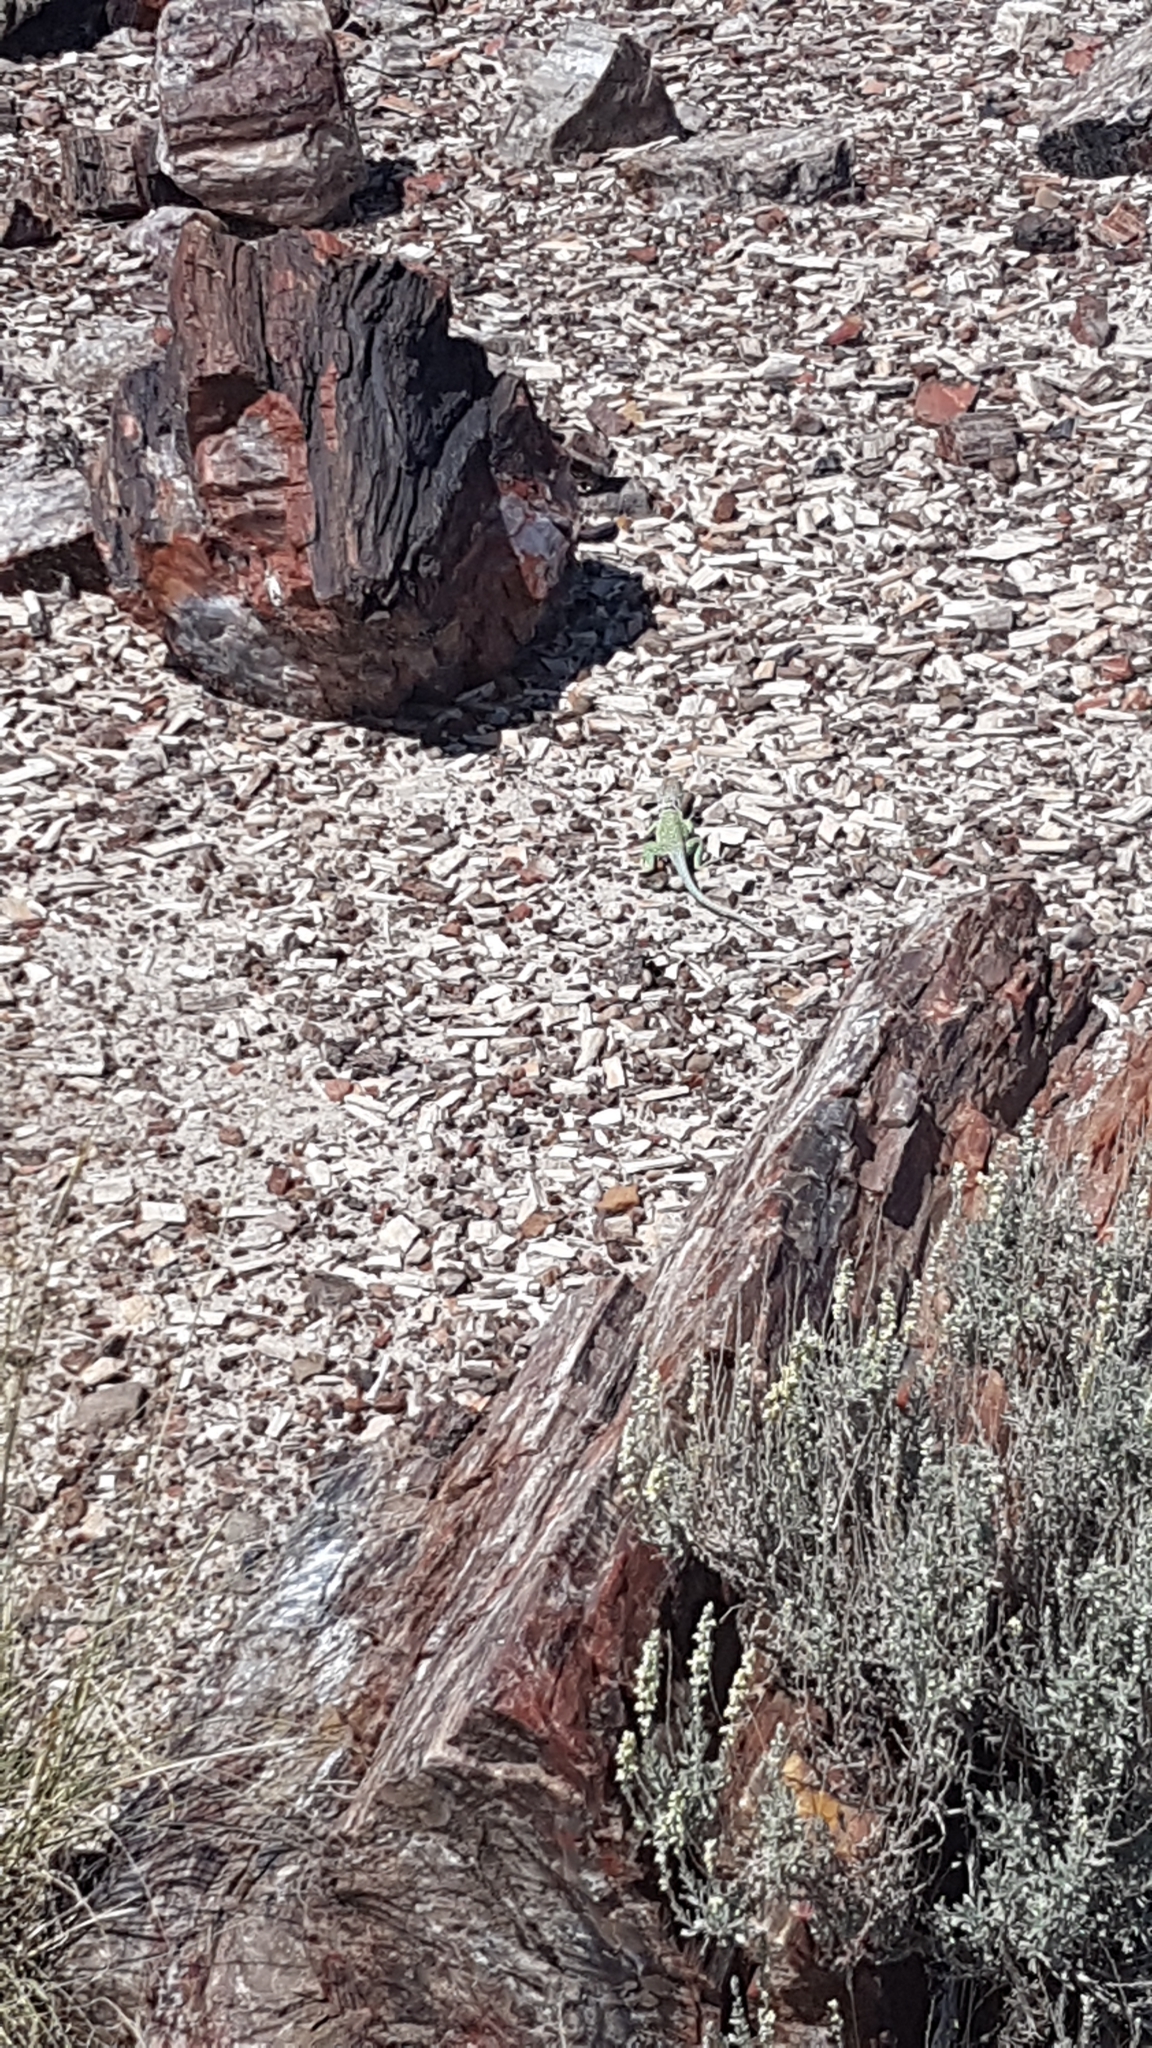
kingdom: Animalia
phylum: Chordata
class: Squamata
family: Crotaphytidae
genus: Crotaphytus
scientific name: Crotaphytus collaris
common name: Collared lizard
